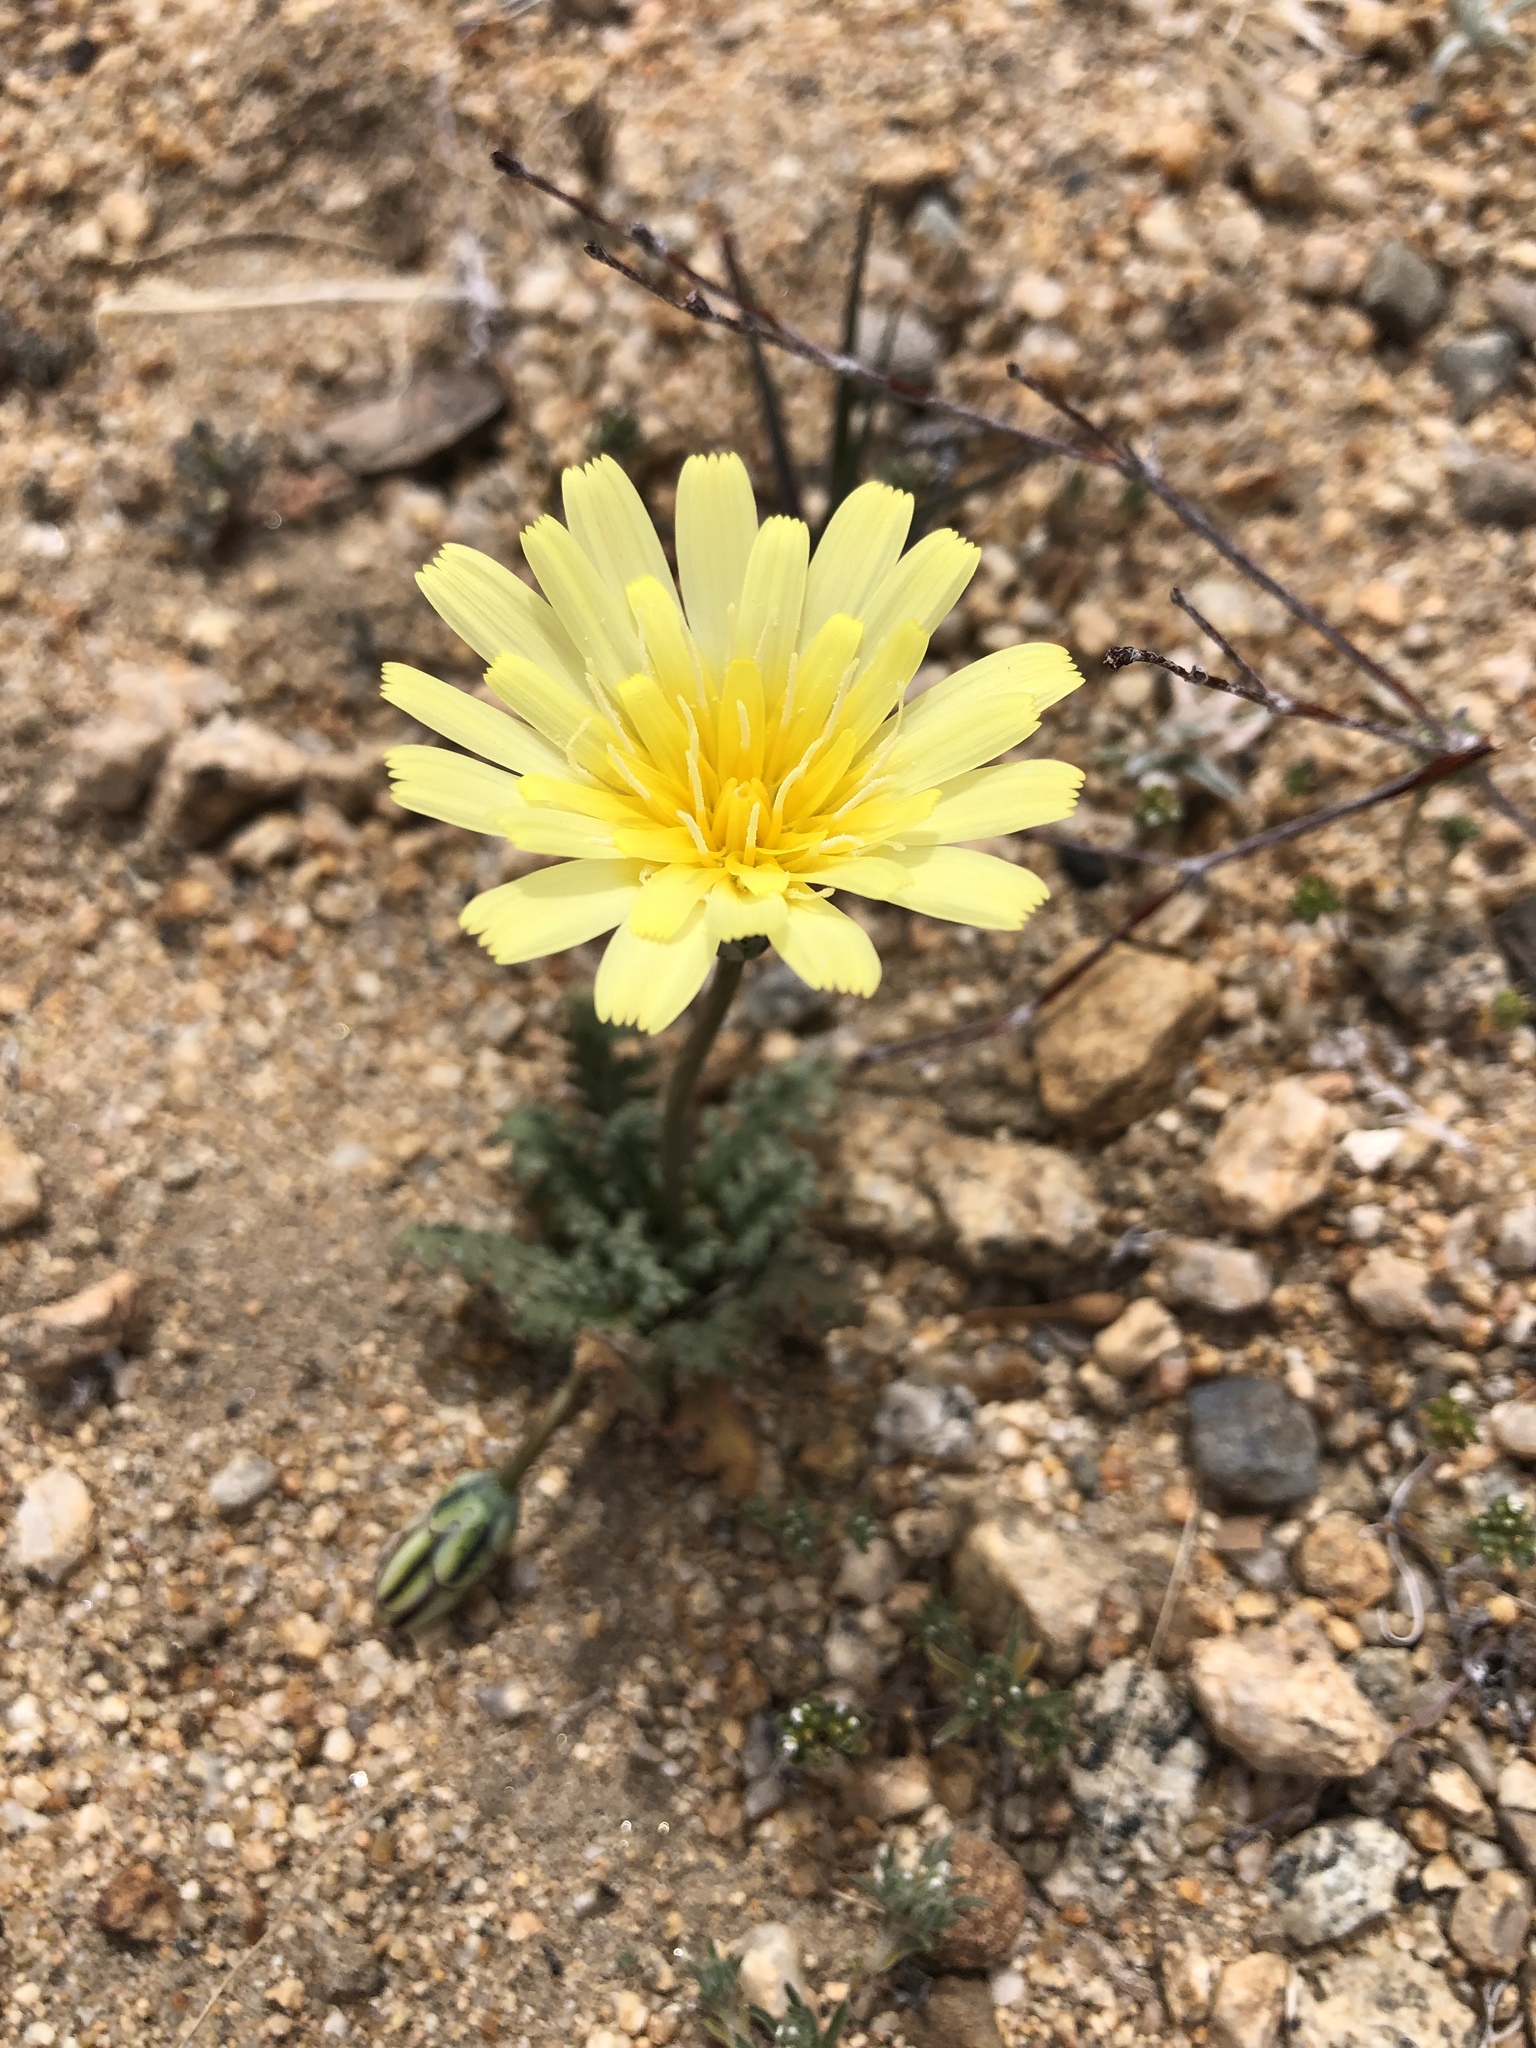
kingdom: Plantae
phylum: Tracheophyta
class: Magnoliopsida
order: Asterales
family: Asteraceae
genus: Anisocoma
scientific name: Anisocoma acaulis
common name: Scalebud
